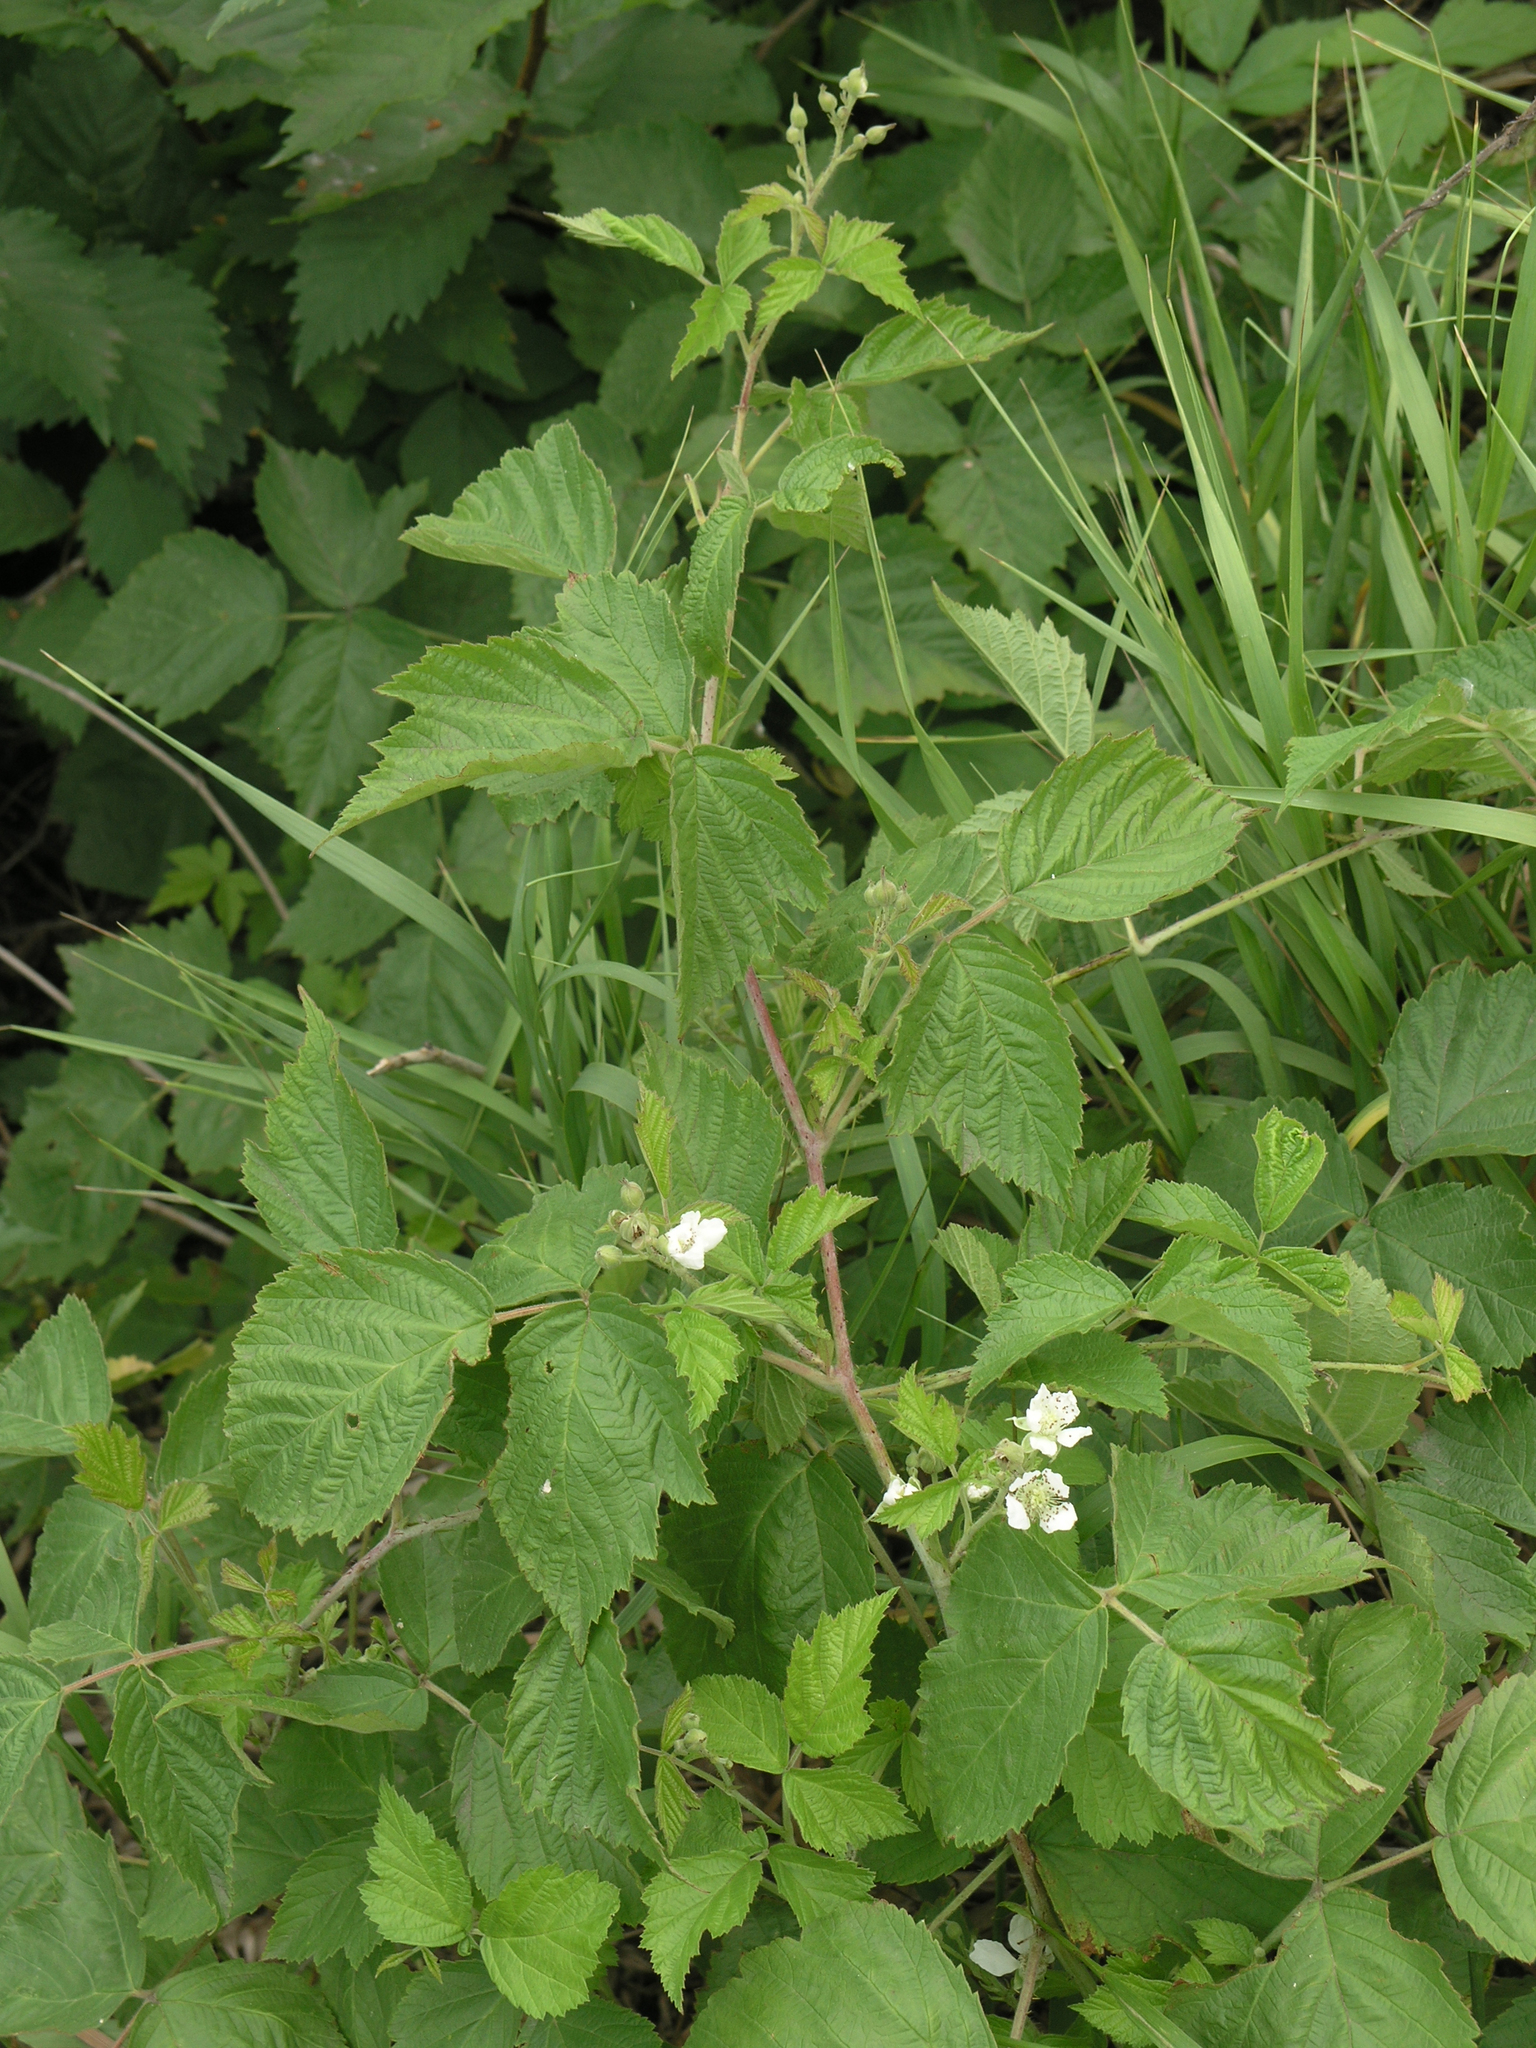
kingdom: Plantae
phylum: Tracheophyta
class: Magnoliopsida
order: Rosales
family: Rosaceae
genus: Rubus
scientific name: Rubus caesius
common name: Dewberry
